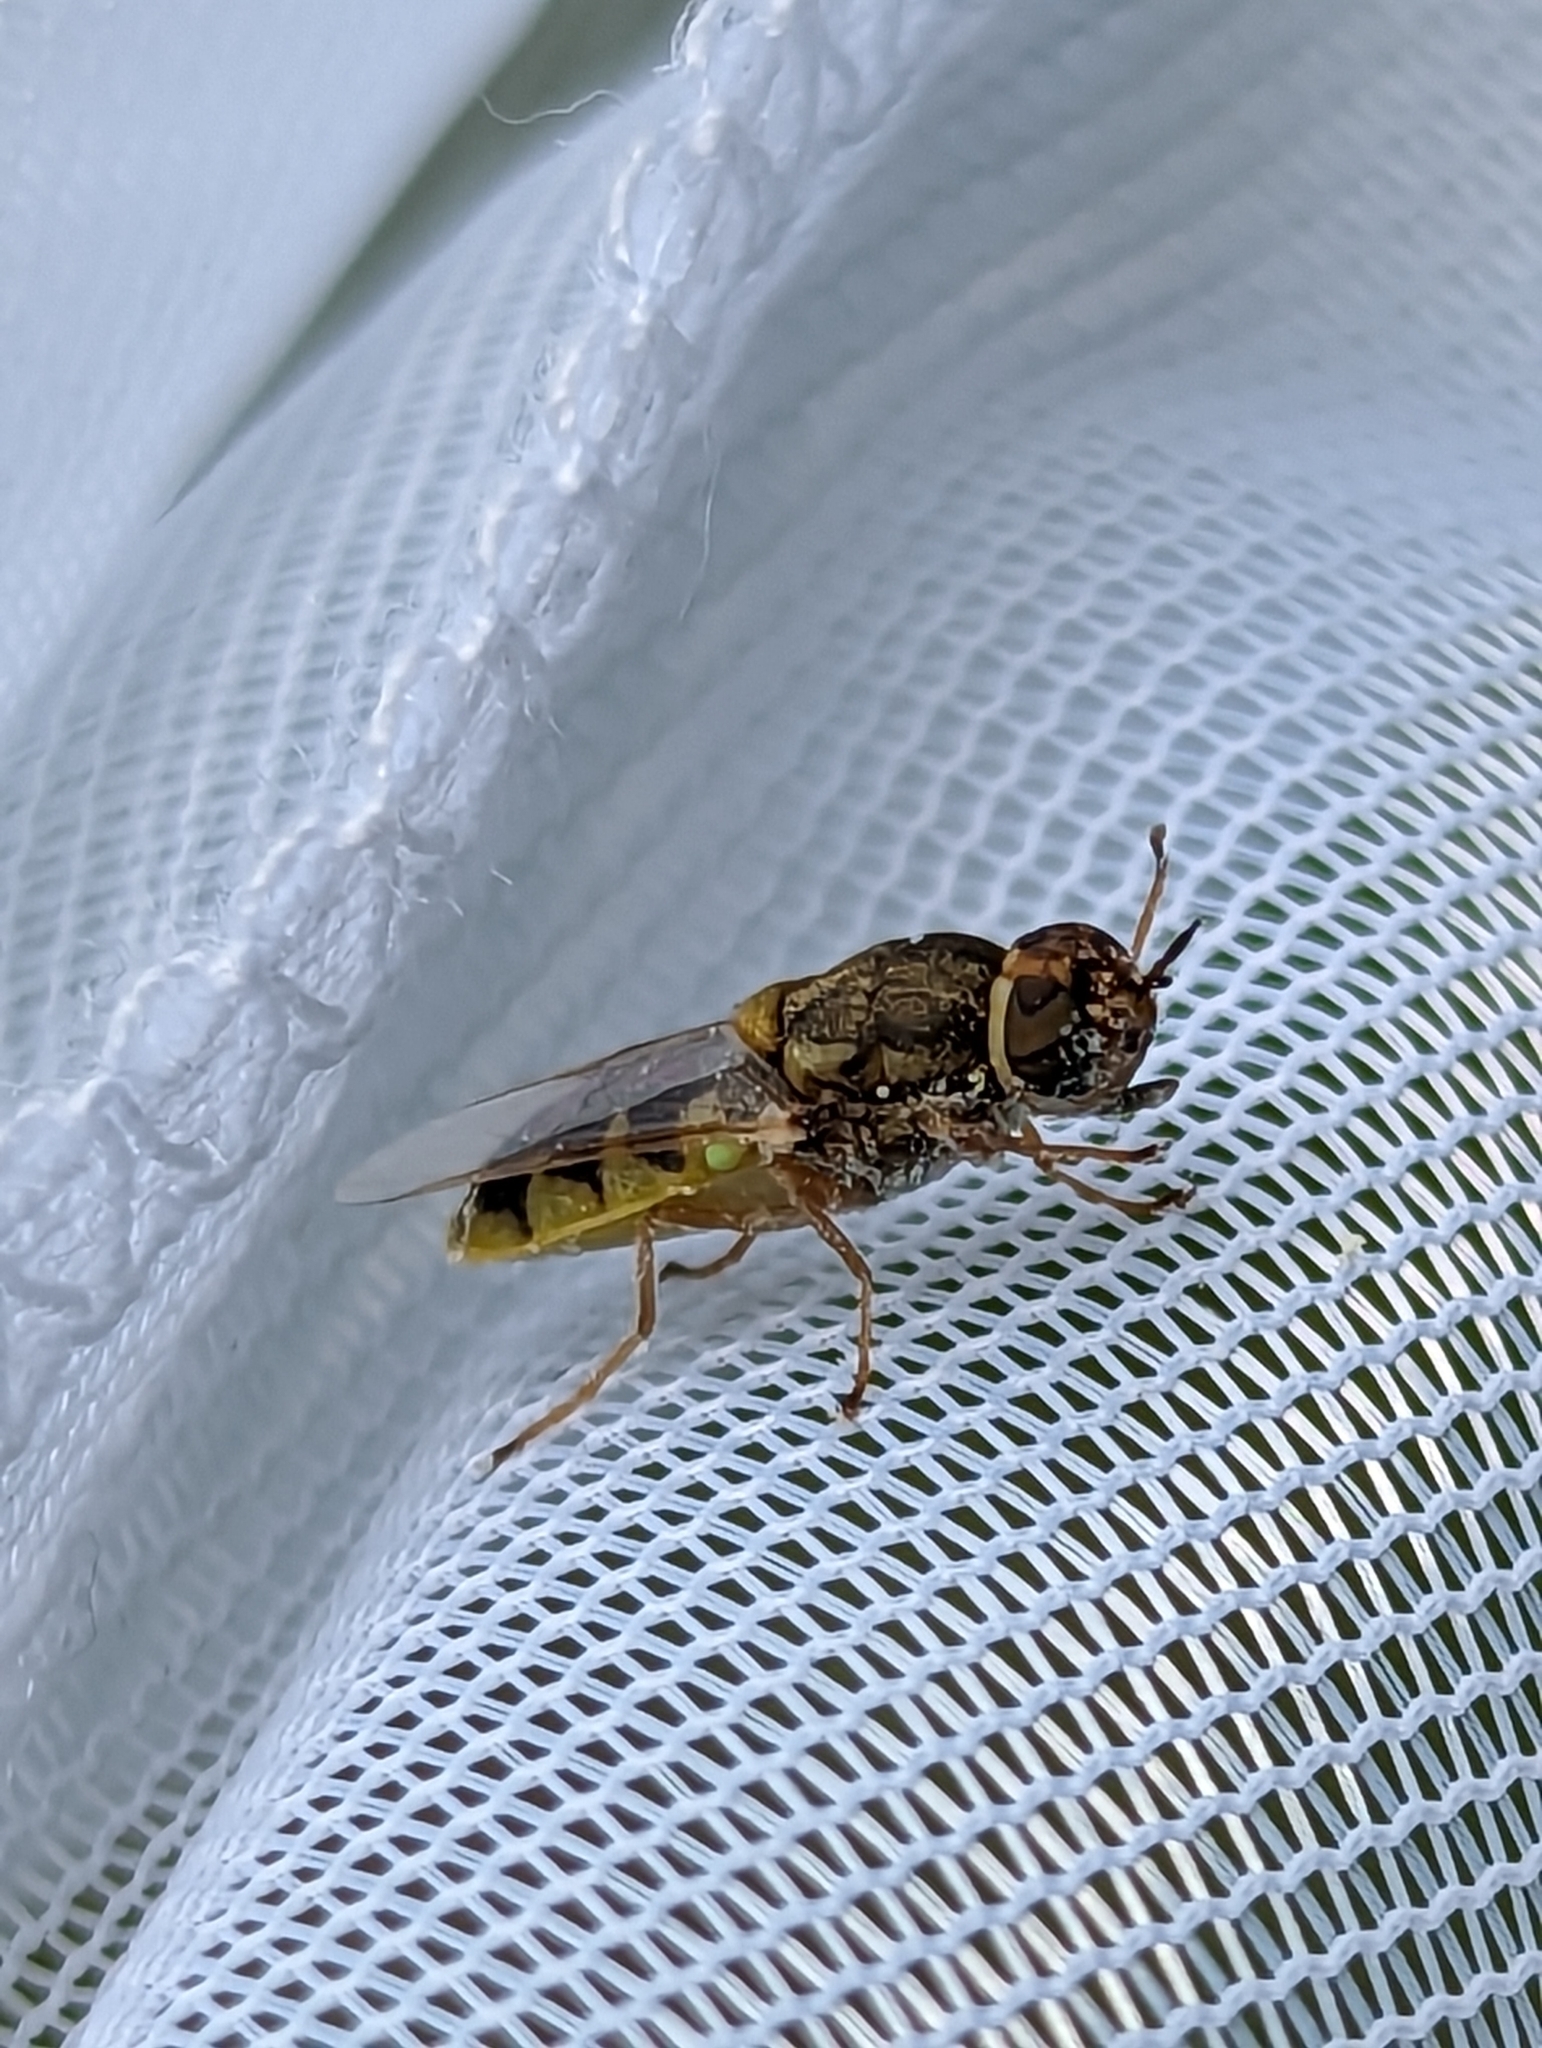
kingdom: Animalia
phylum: Arthropoda
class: Insecta
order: Diptera
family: Stratiomyidae
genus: Hedriodiscus
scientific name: Hedriodiscus vertebratus
